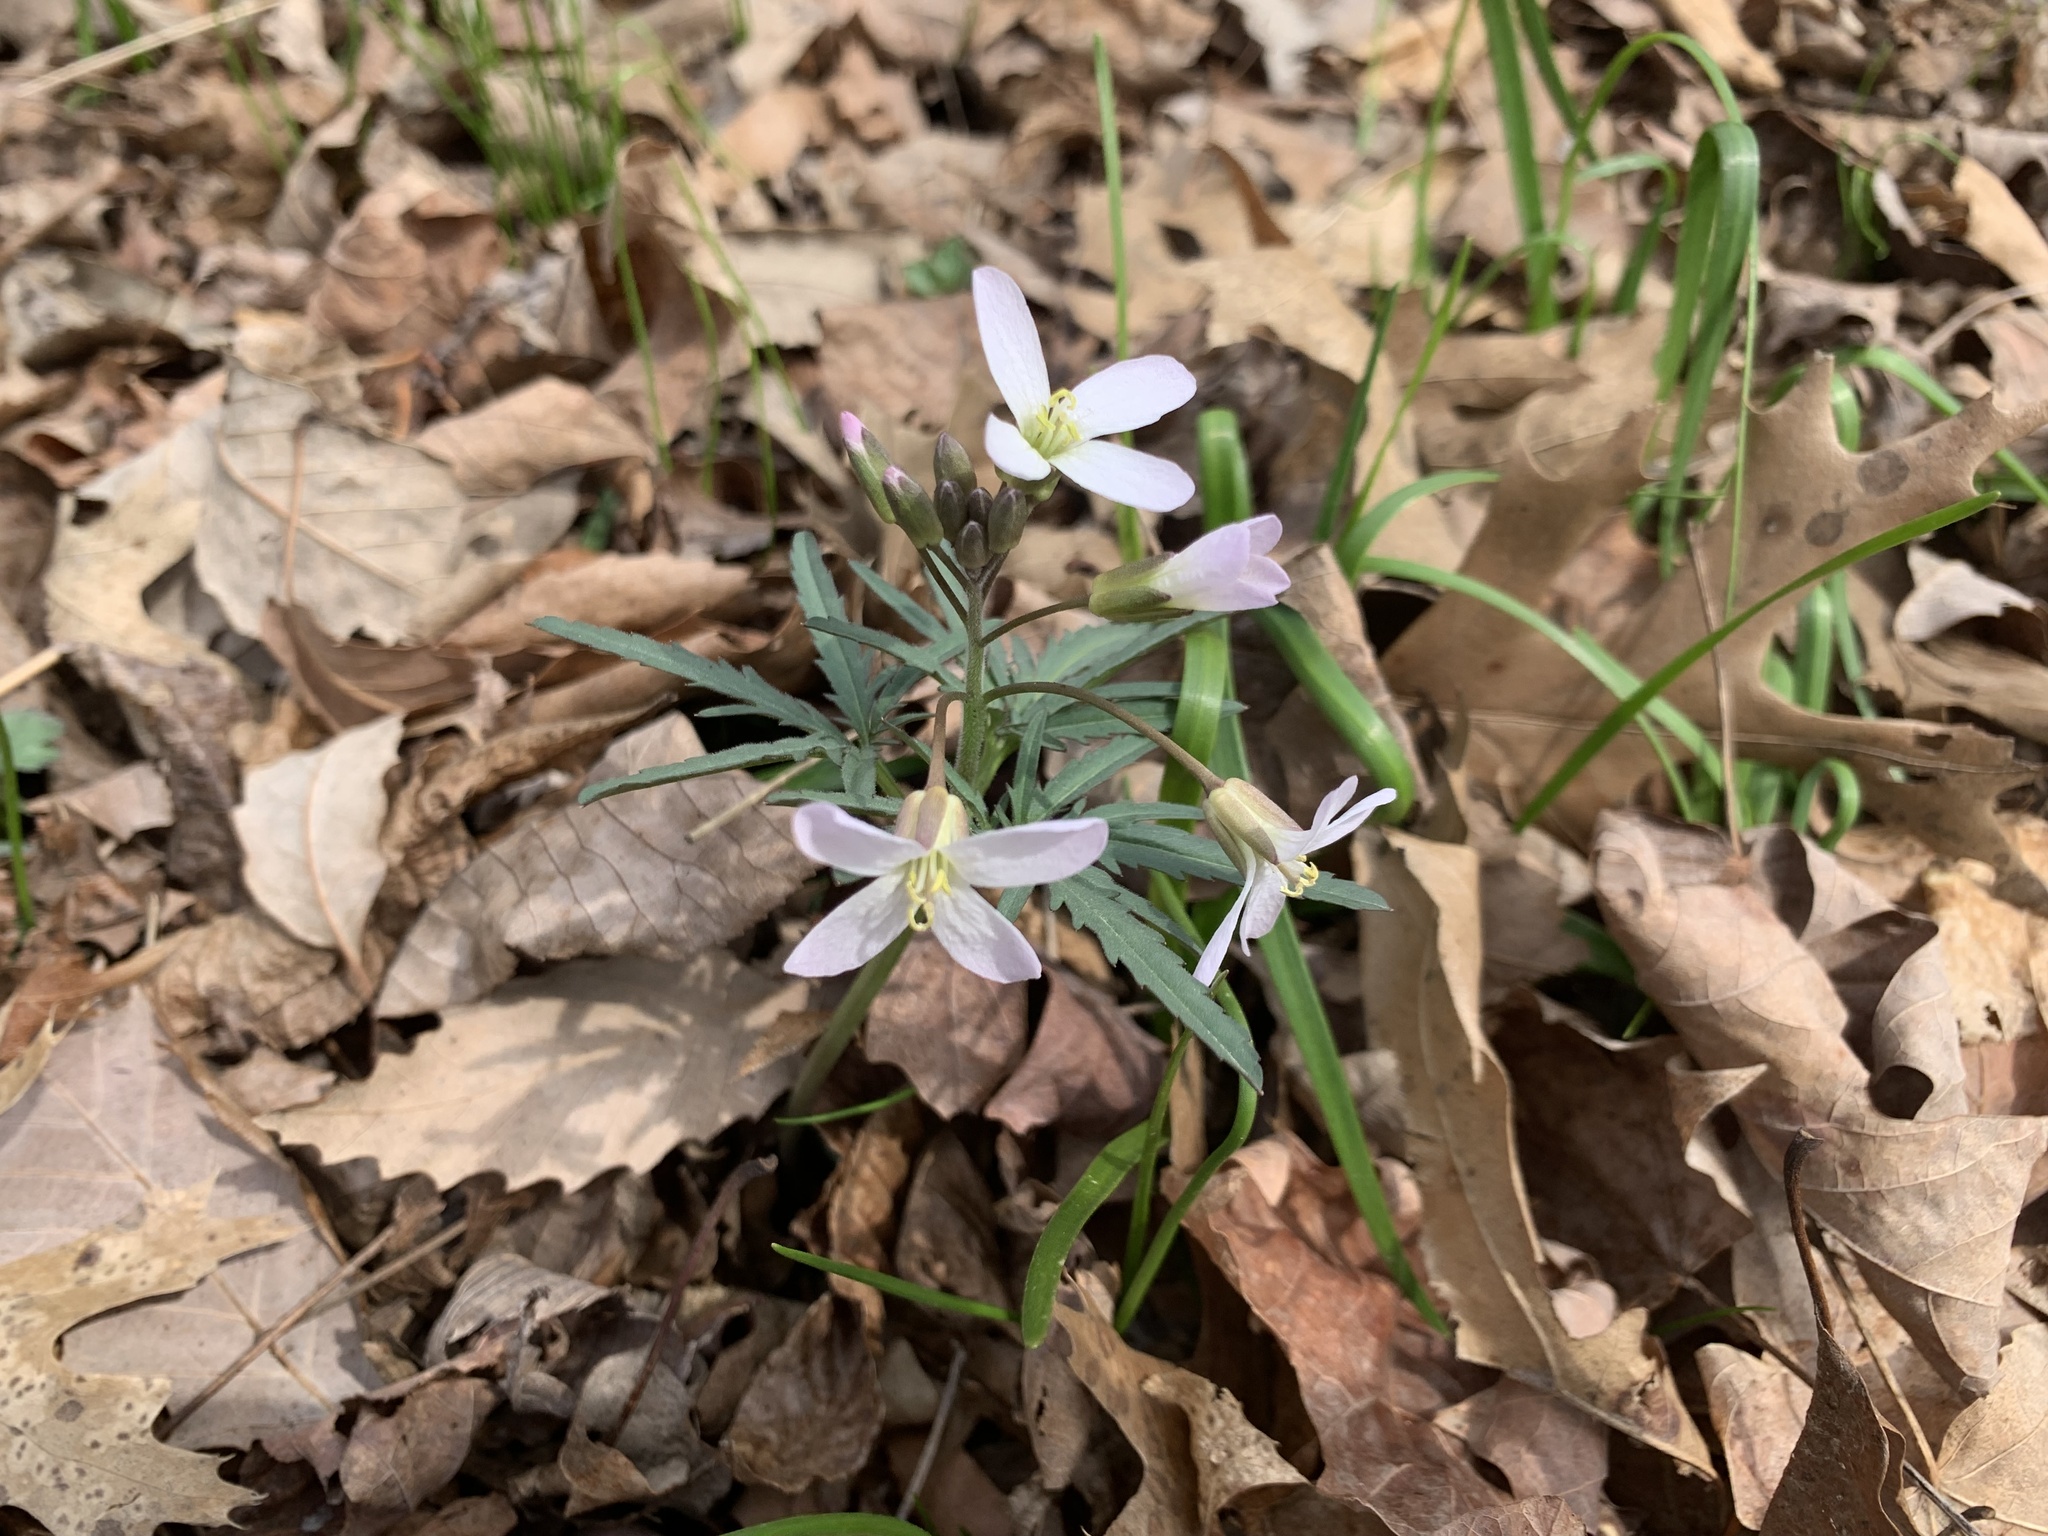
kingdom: Plantae
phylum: Tracheophyta
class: Magnoliopsida
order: Brassicales
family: Brassicaceae
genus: Cardamine
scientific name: Cardamine concatenata
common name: Cut-leaf toothcup
